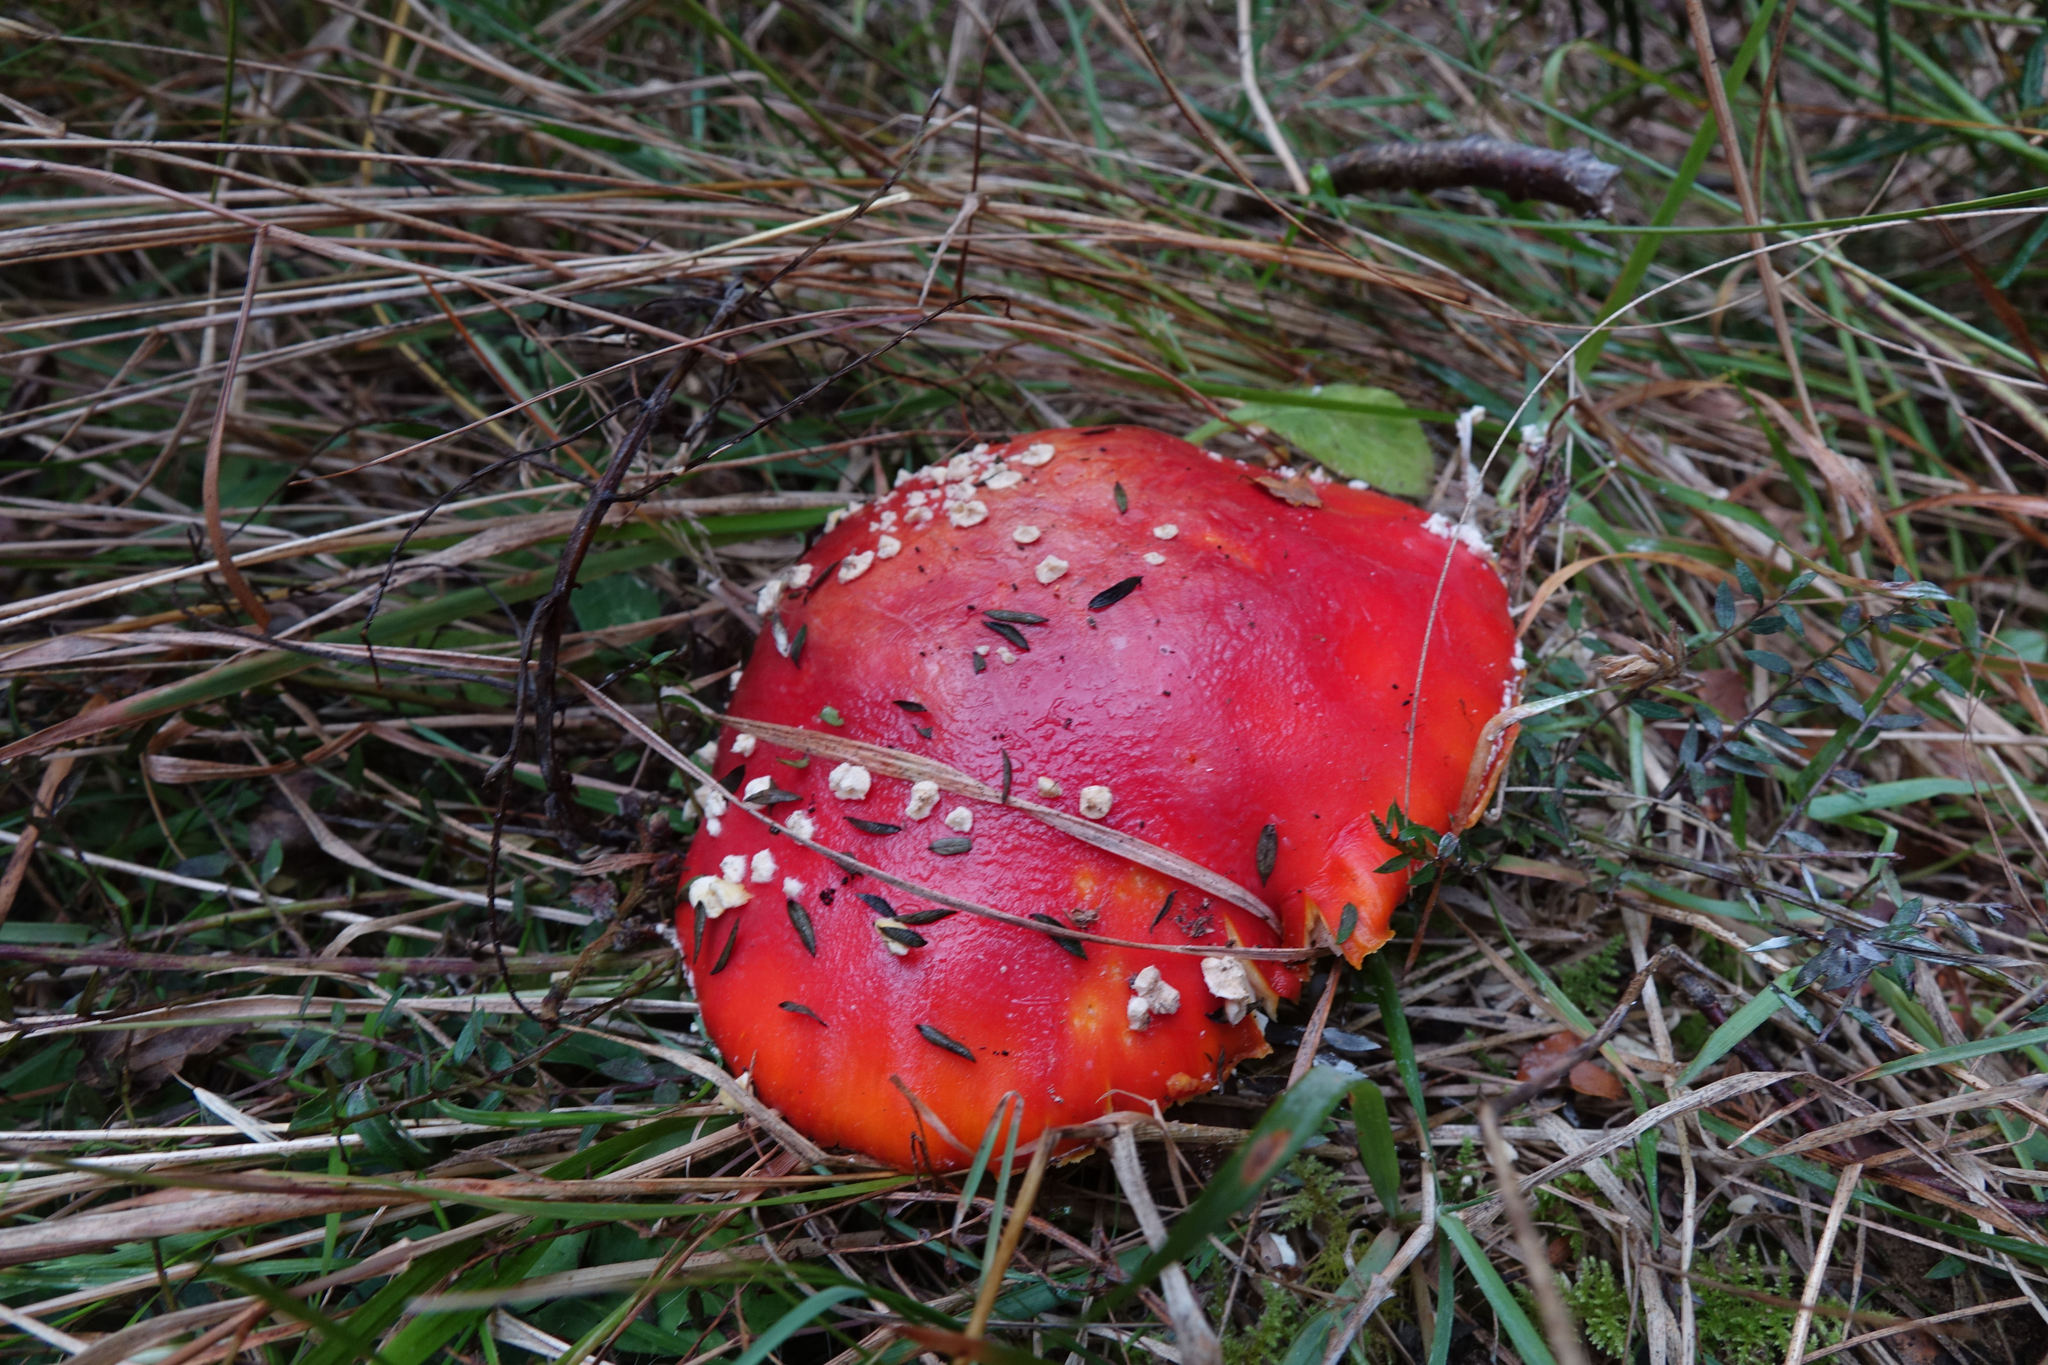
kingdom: Fungi
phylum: Basidiomycota
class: Agaricomycetes
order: Agaricales
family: Amanitaceae
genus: Amanita
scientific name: Amanita muscaria
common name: Fly agaric
